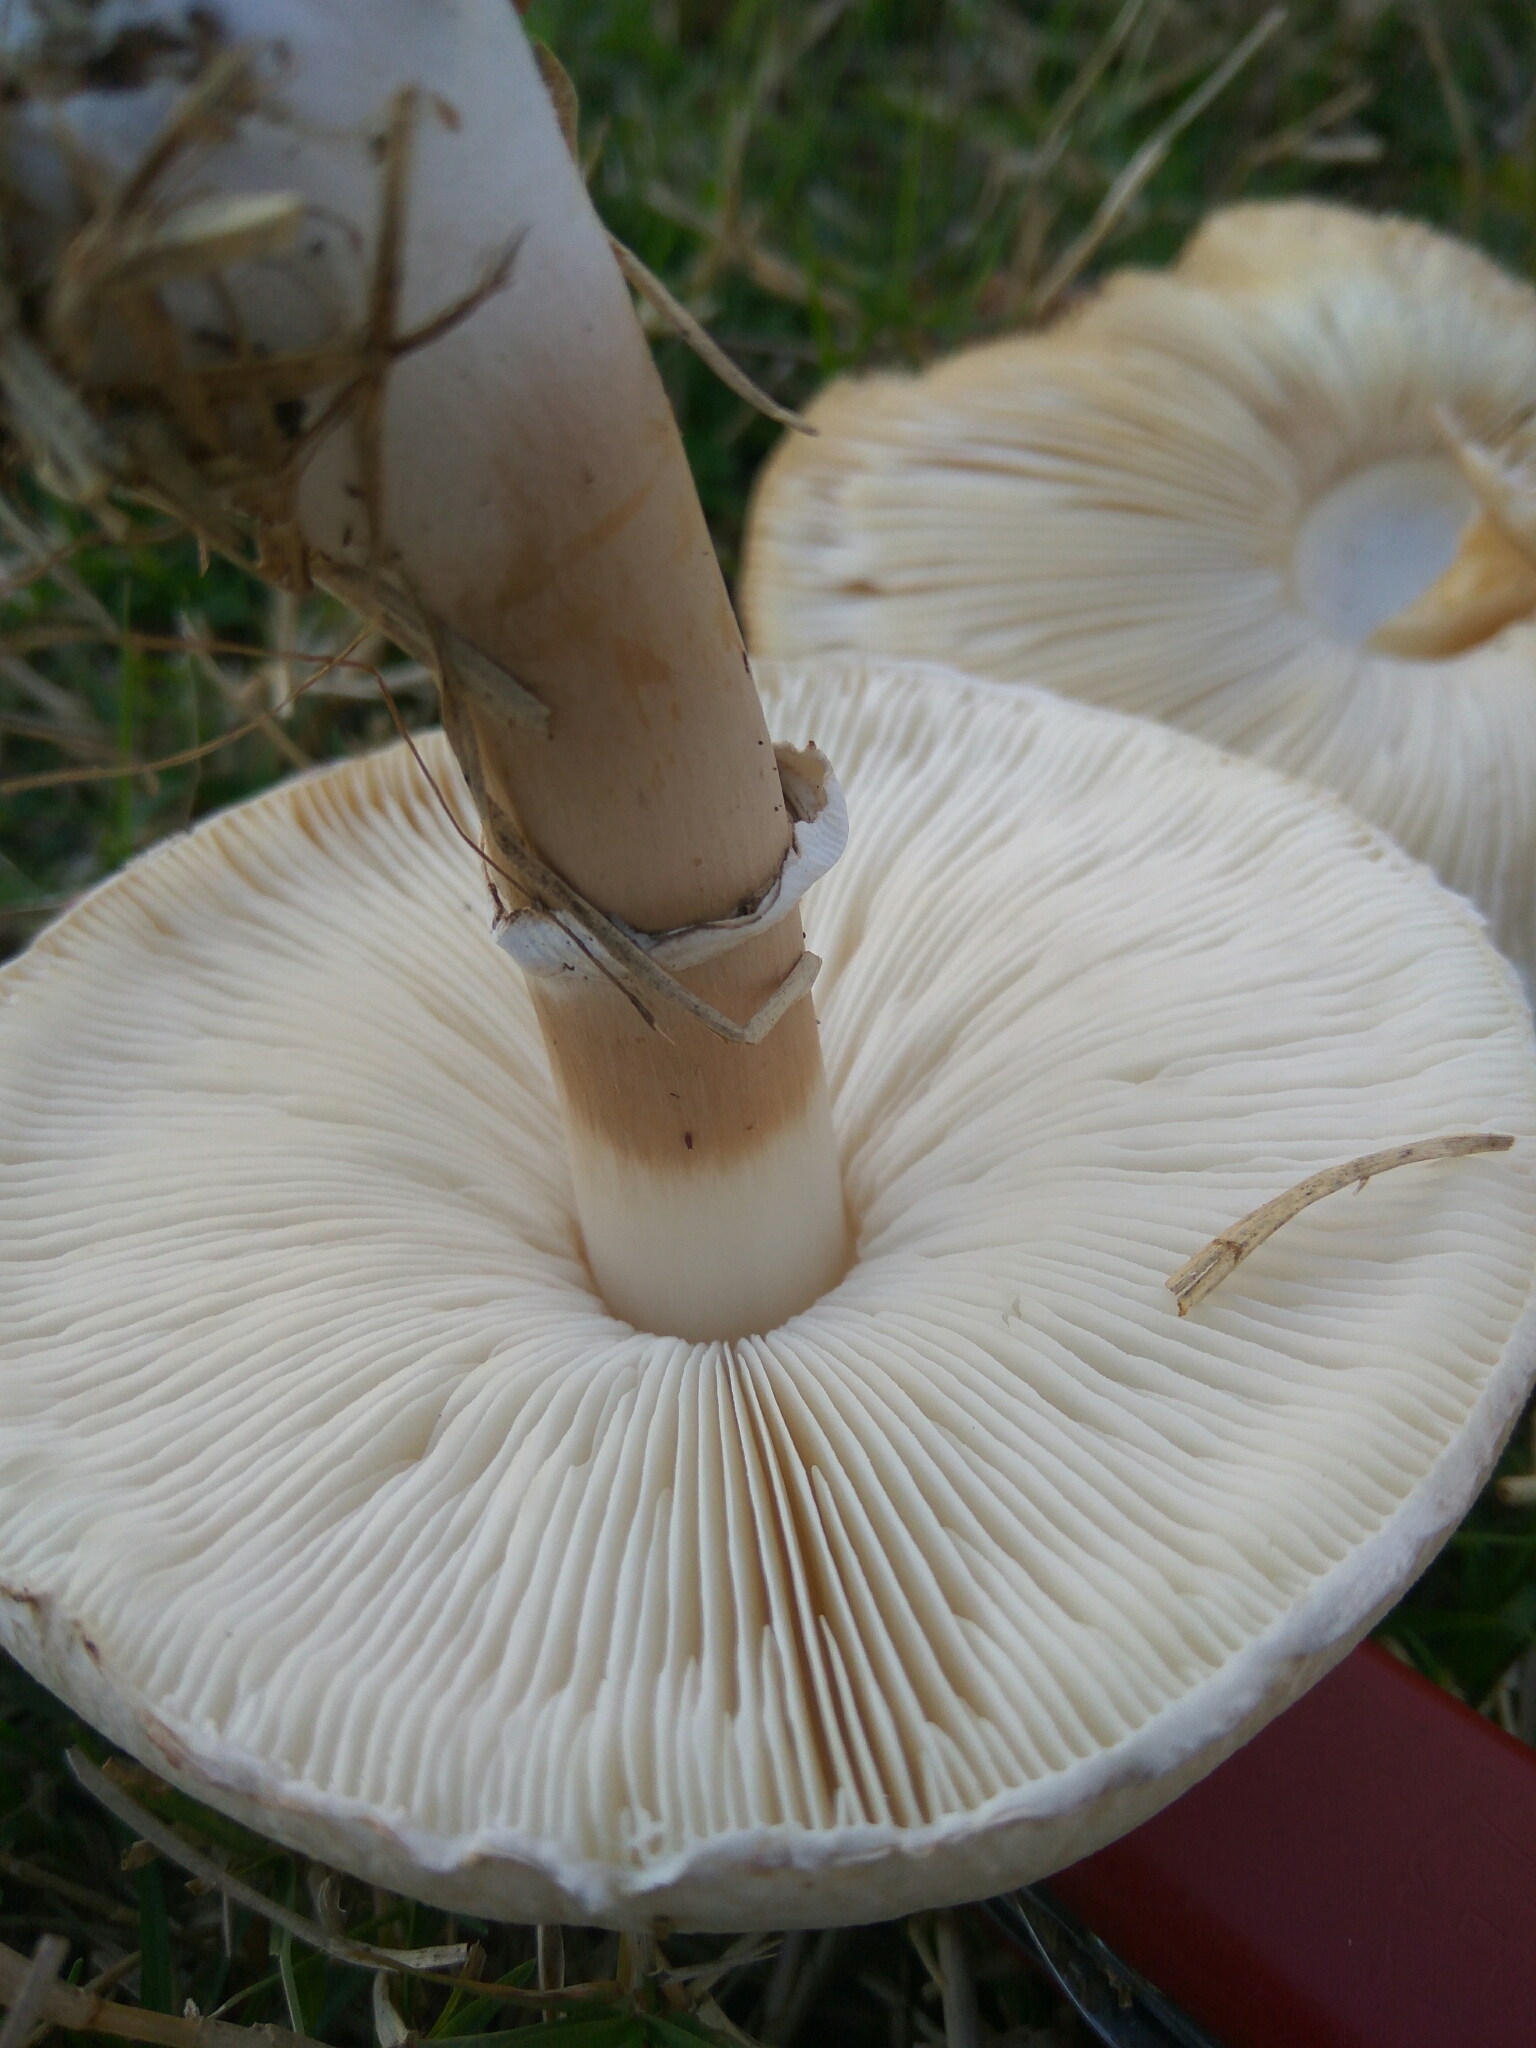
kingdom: Fungi
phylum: Basidiomycota
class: Agaricomycetes
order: Agaricales
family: Agaricaceae
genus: Leucoagaricus
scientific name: Leucoagaricus leucothites
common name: White dapperling
